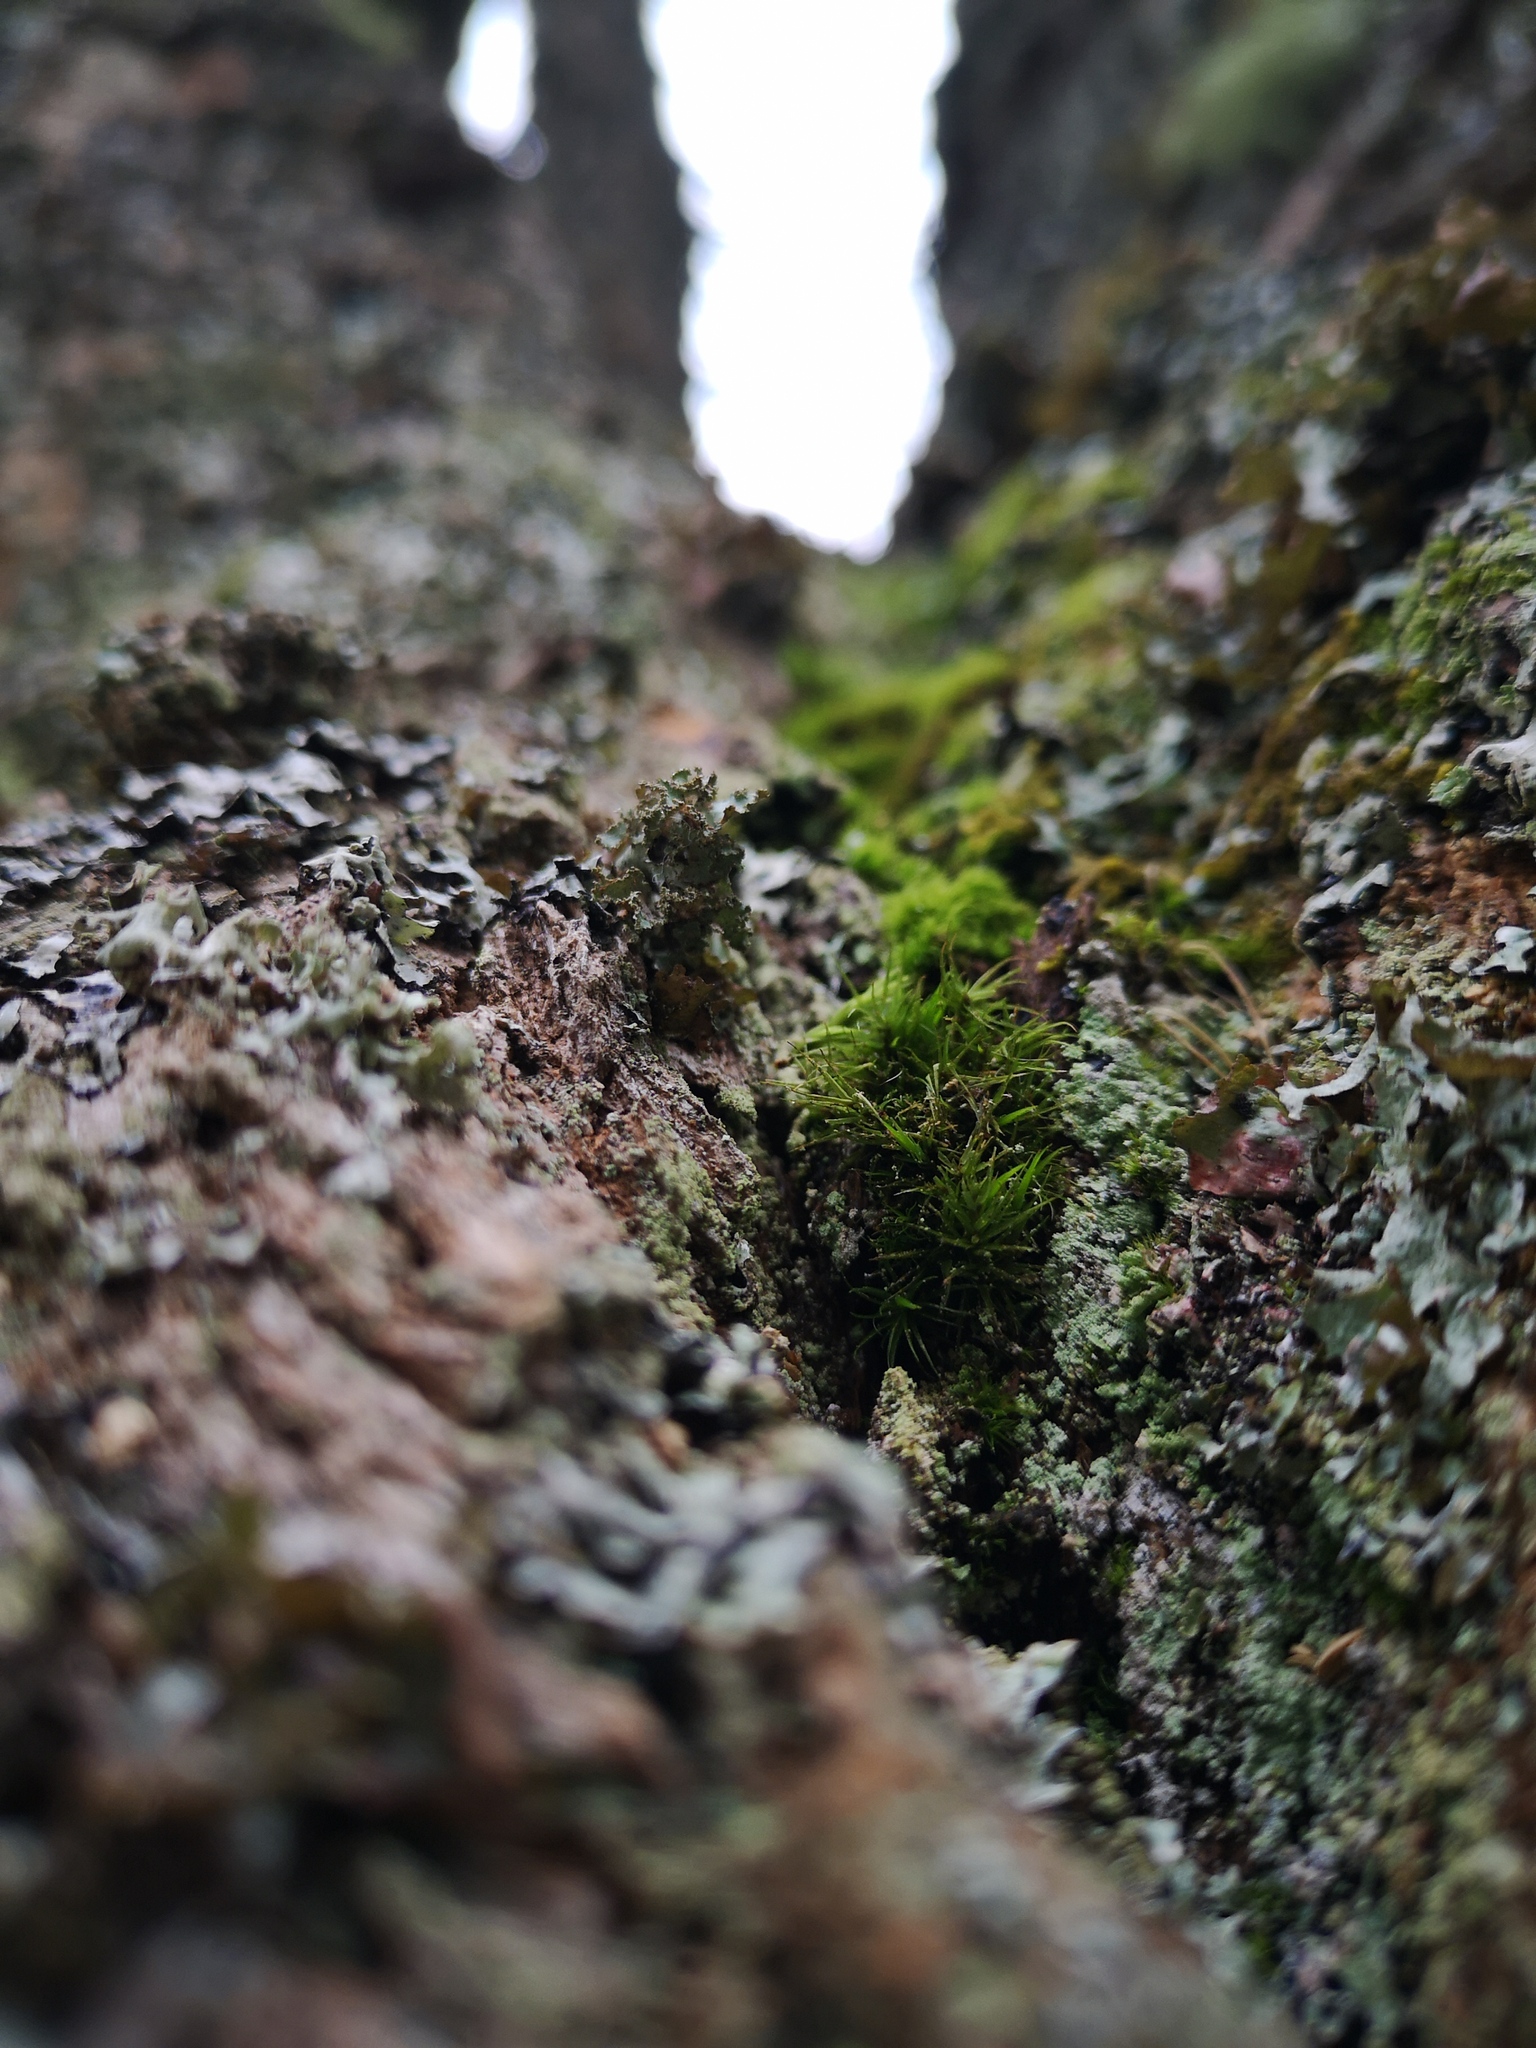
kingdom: Plantae
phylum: Bryophyta
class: Bryopsida
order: Dicranales
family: Dicranaceae
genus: Dicranum
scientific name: Dicranum viride
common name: Green broom moss
